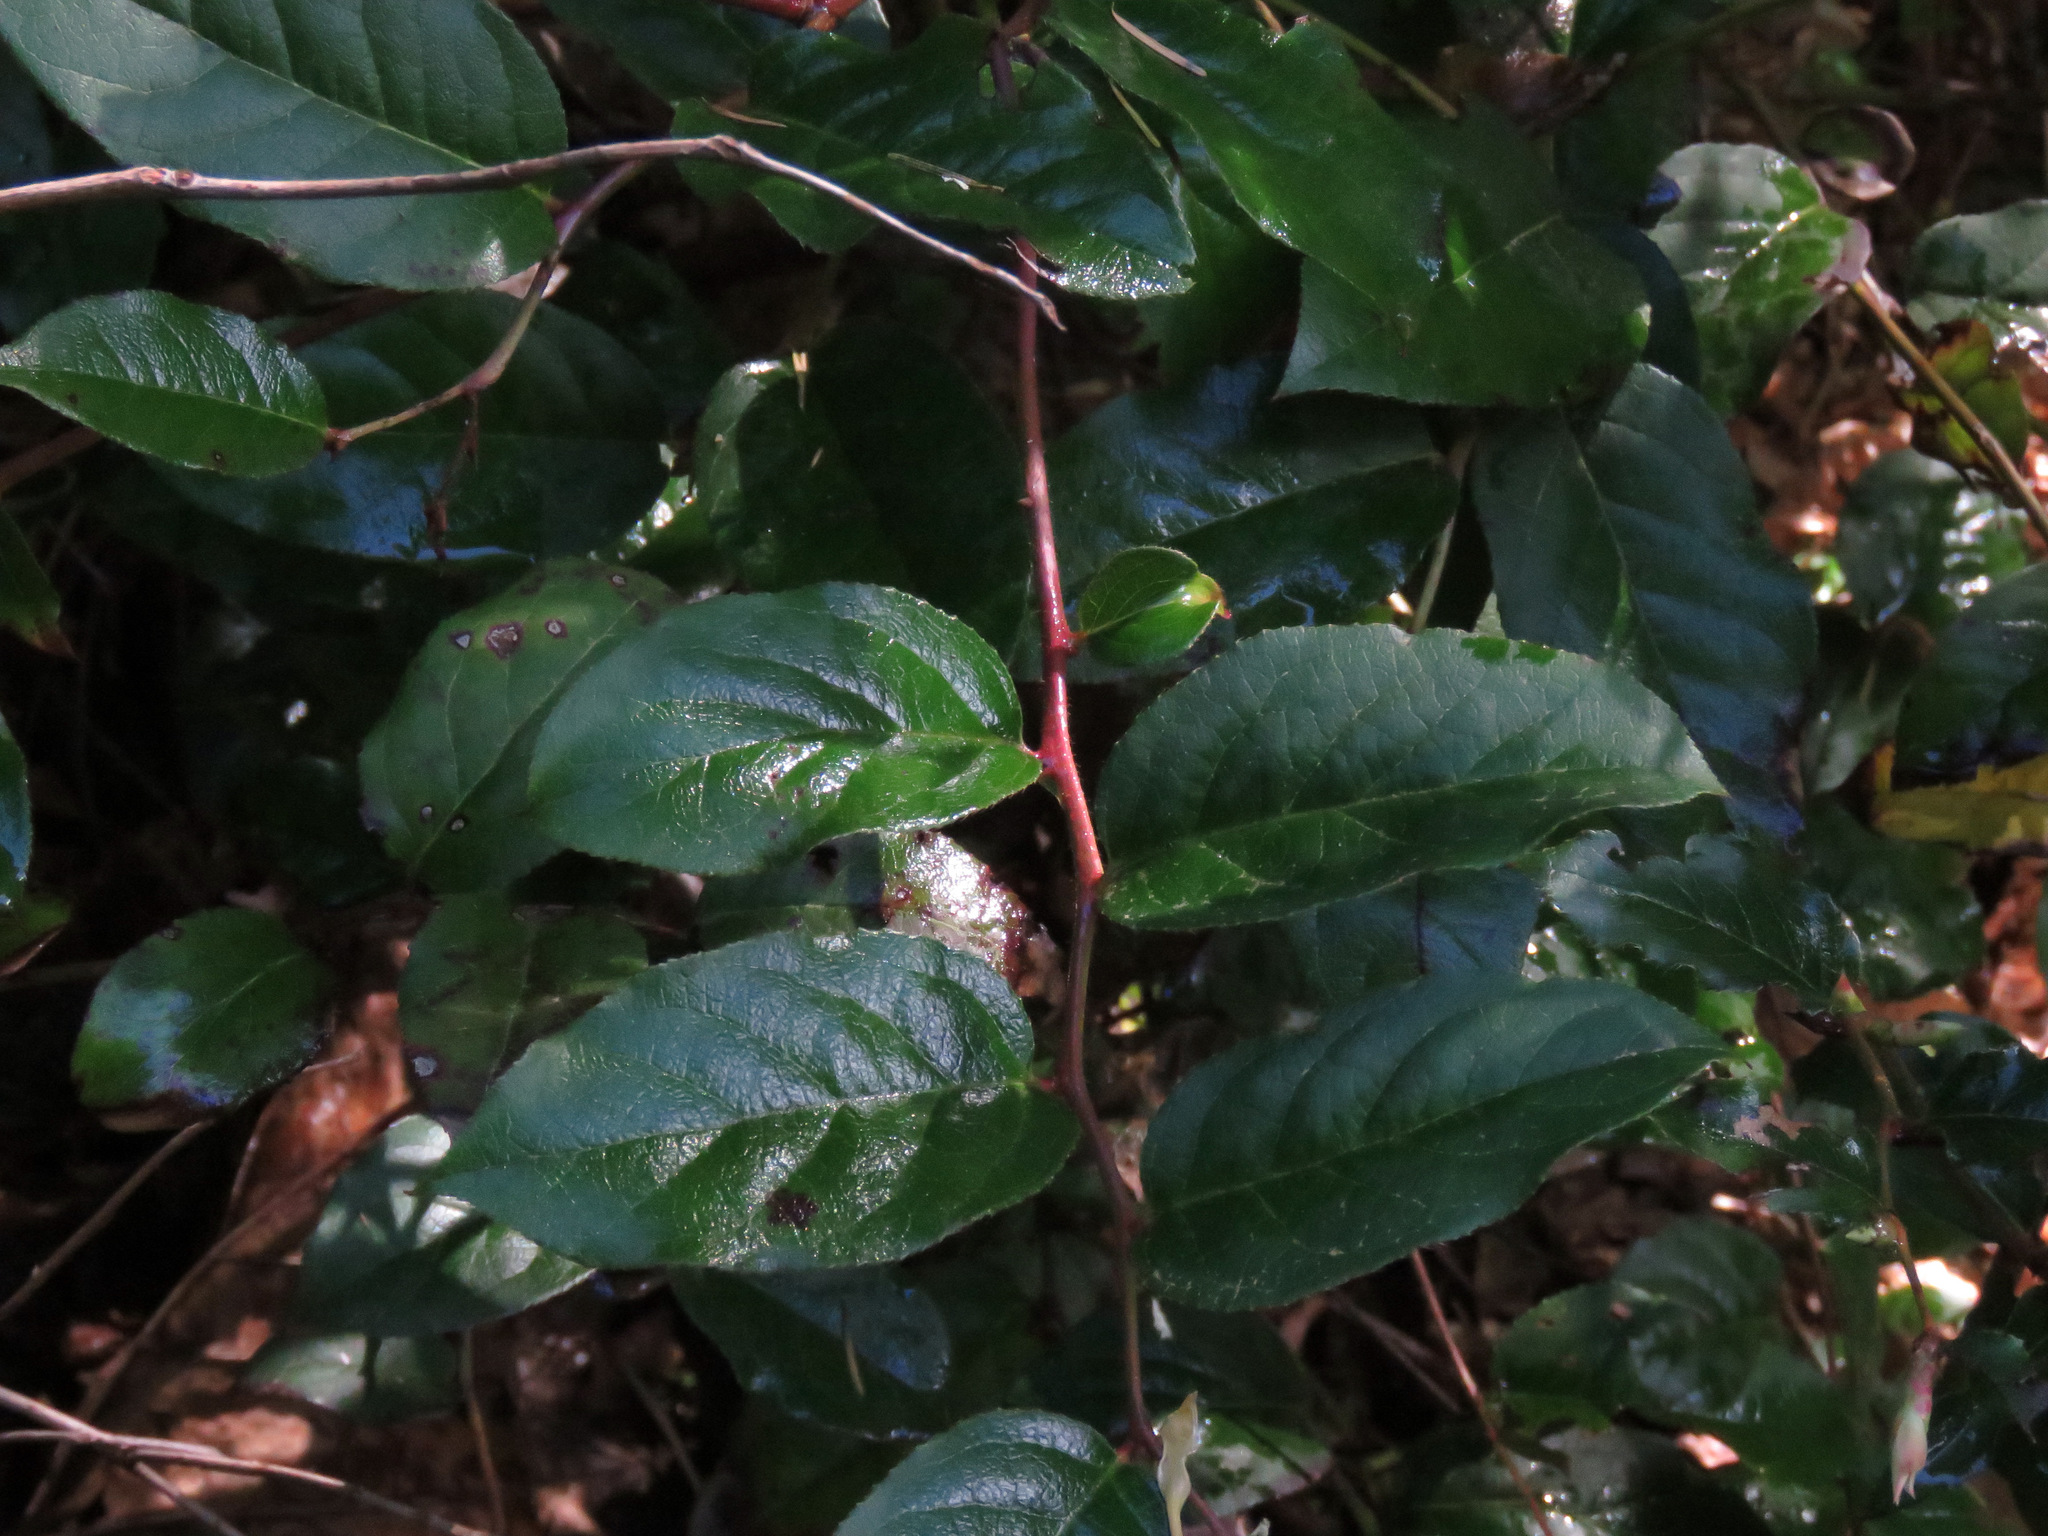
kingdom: Plantae
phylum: Tracheophyta
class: Magnoliopsida
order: Ericales
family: Ericaceae
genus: Gaultheria
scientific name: Gaultheria shallon
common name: Shallon
